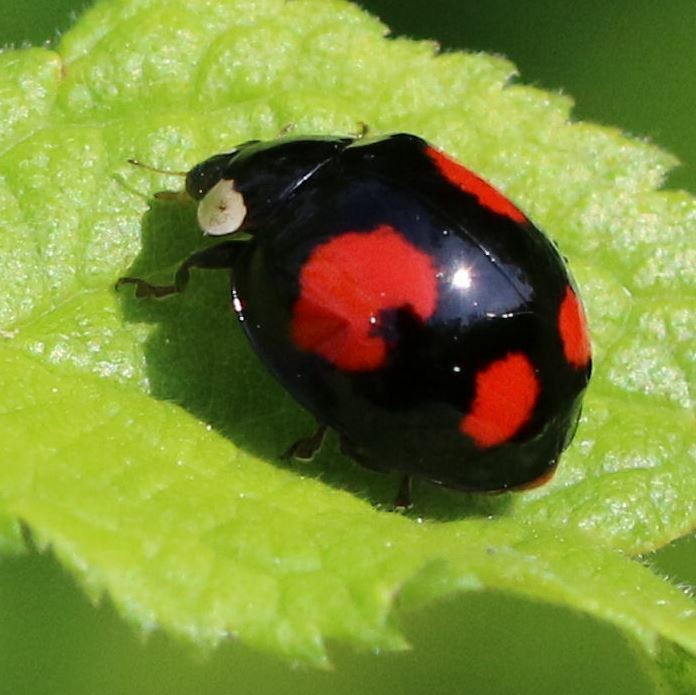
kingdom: Animalia
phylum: Arthropoda
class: Insecta
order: Coleoptera
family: Coccinellidae
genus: Harmonia
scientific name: Harmonia axyridis
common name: Harlequin ladybird
